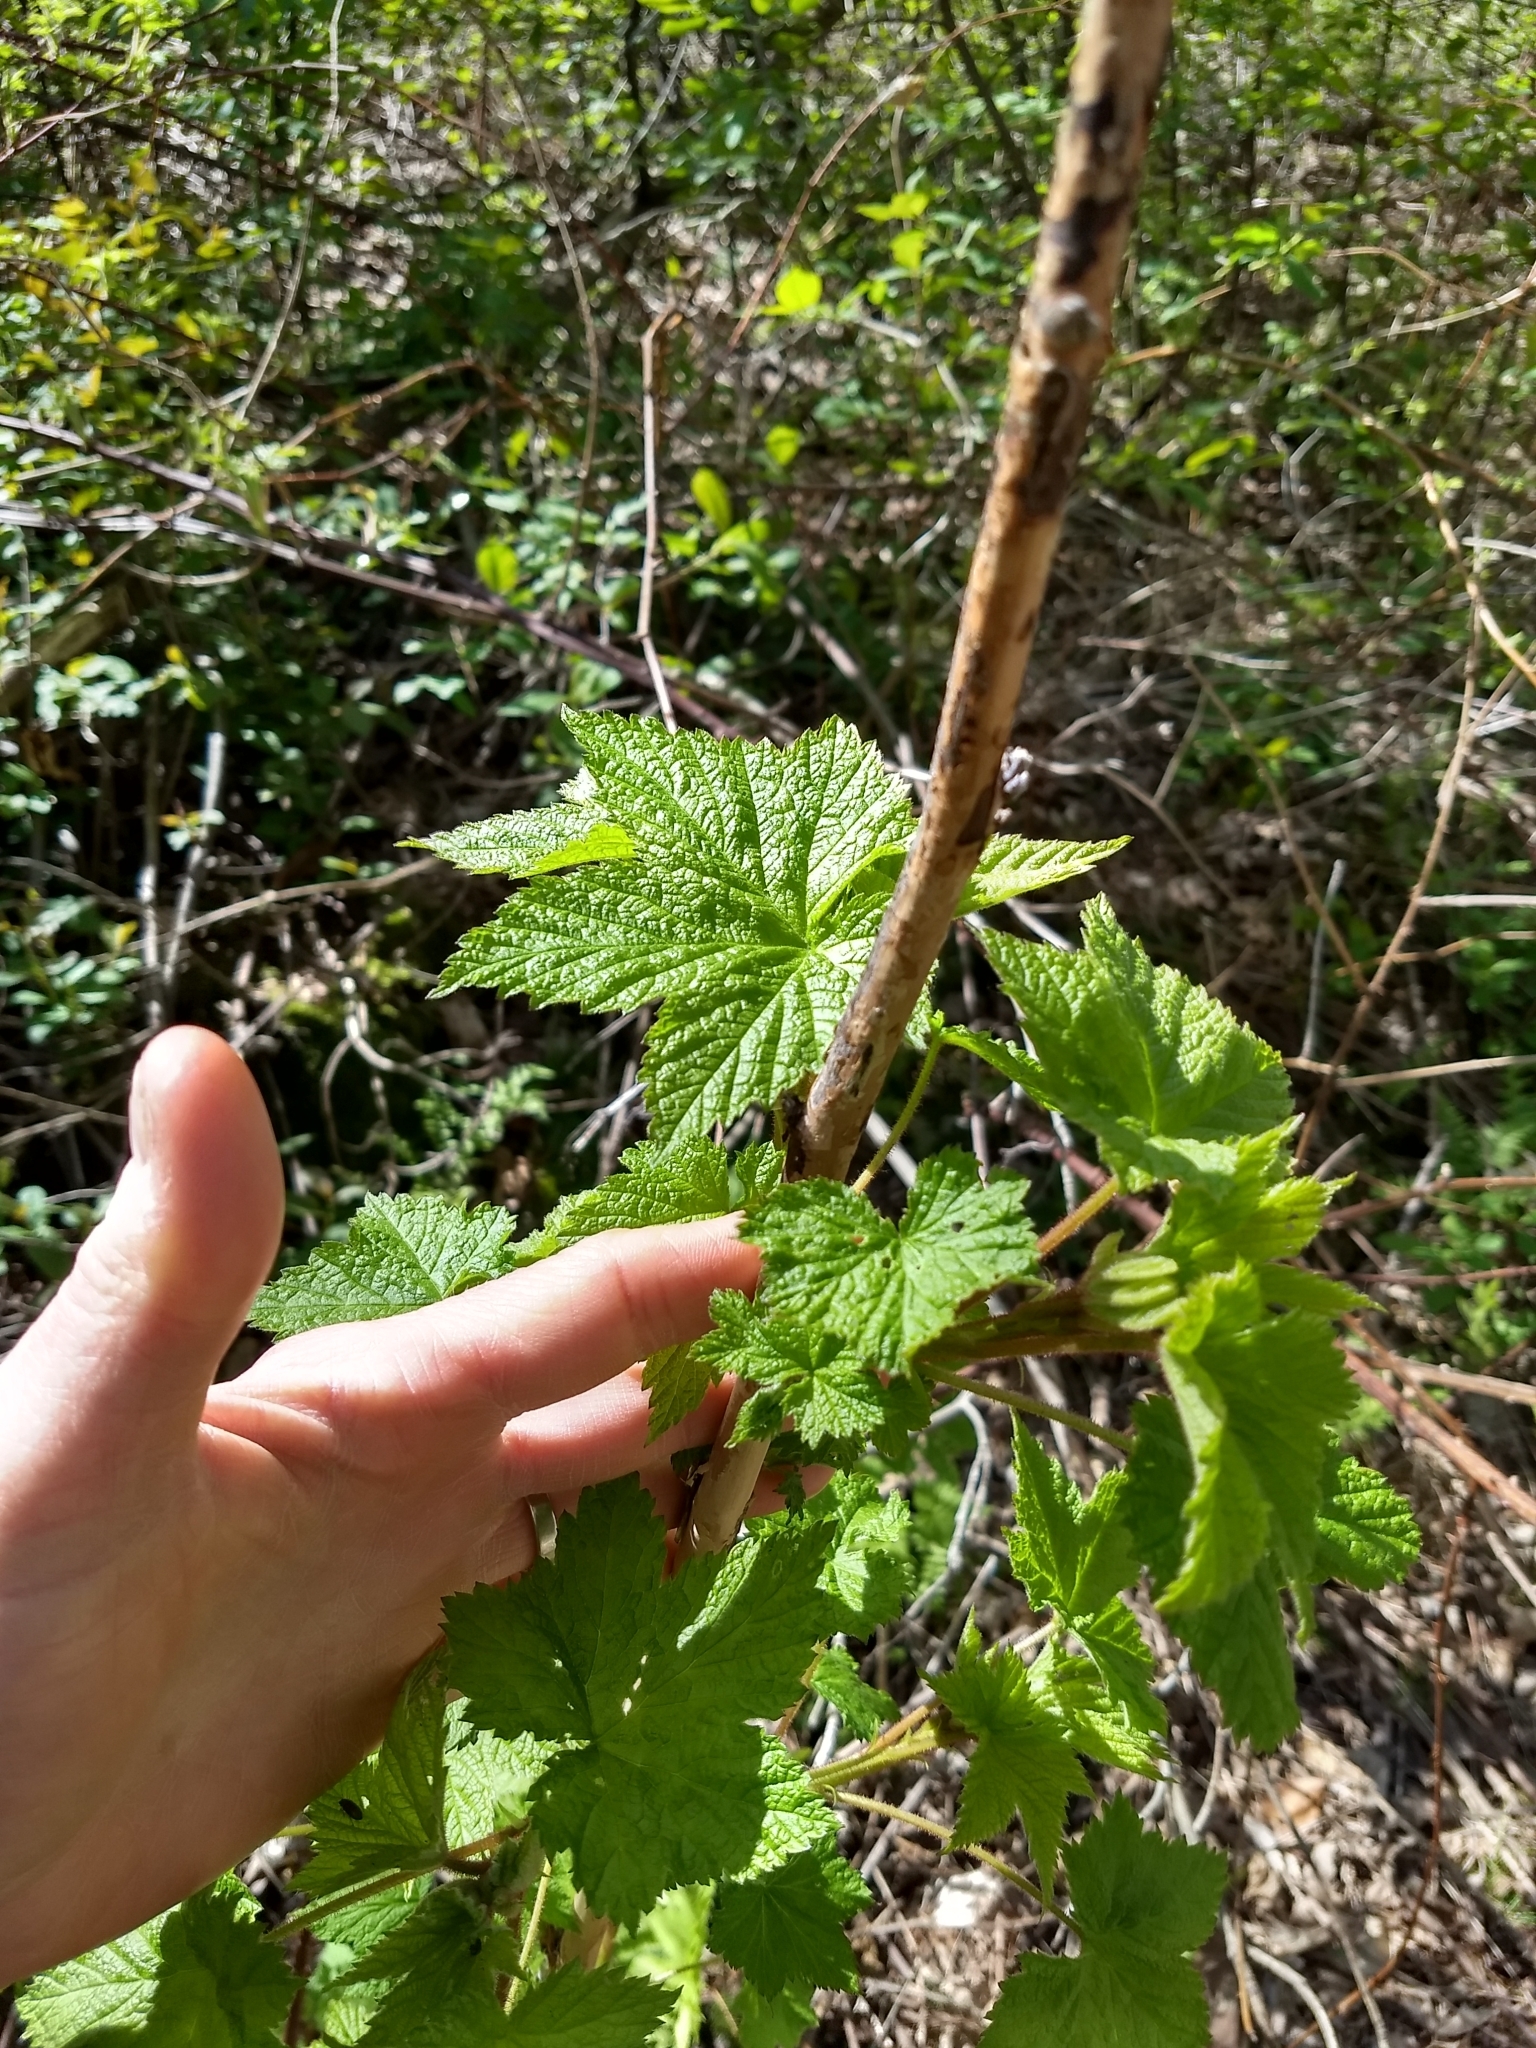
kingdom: Plantae
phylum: Tracheophyta
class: Magnoliopsida
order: Rosales
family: Rosaceae
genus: Rubus
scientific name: Rubus odoratus
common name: Purple-flowered raspberry
